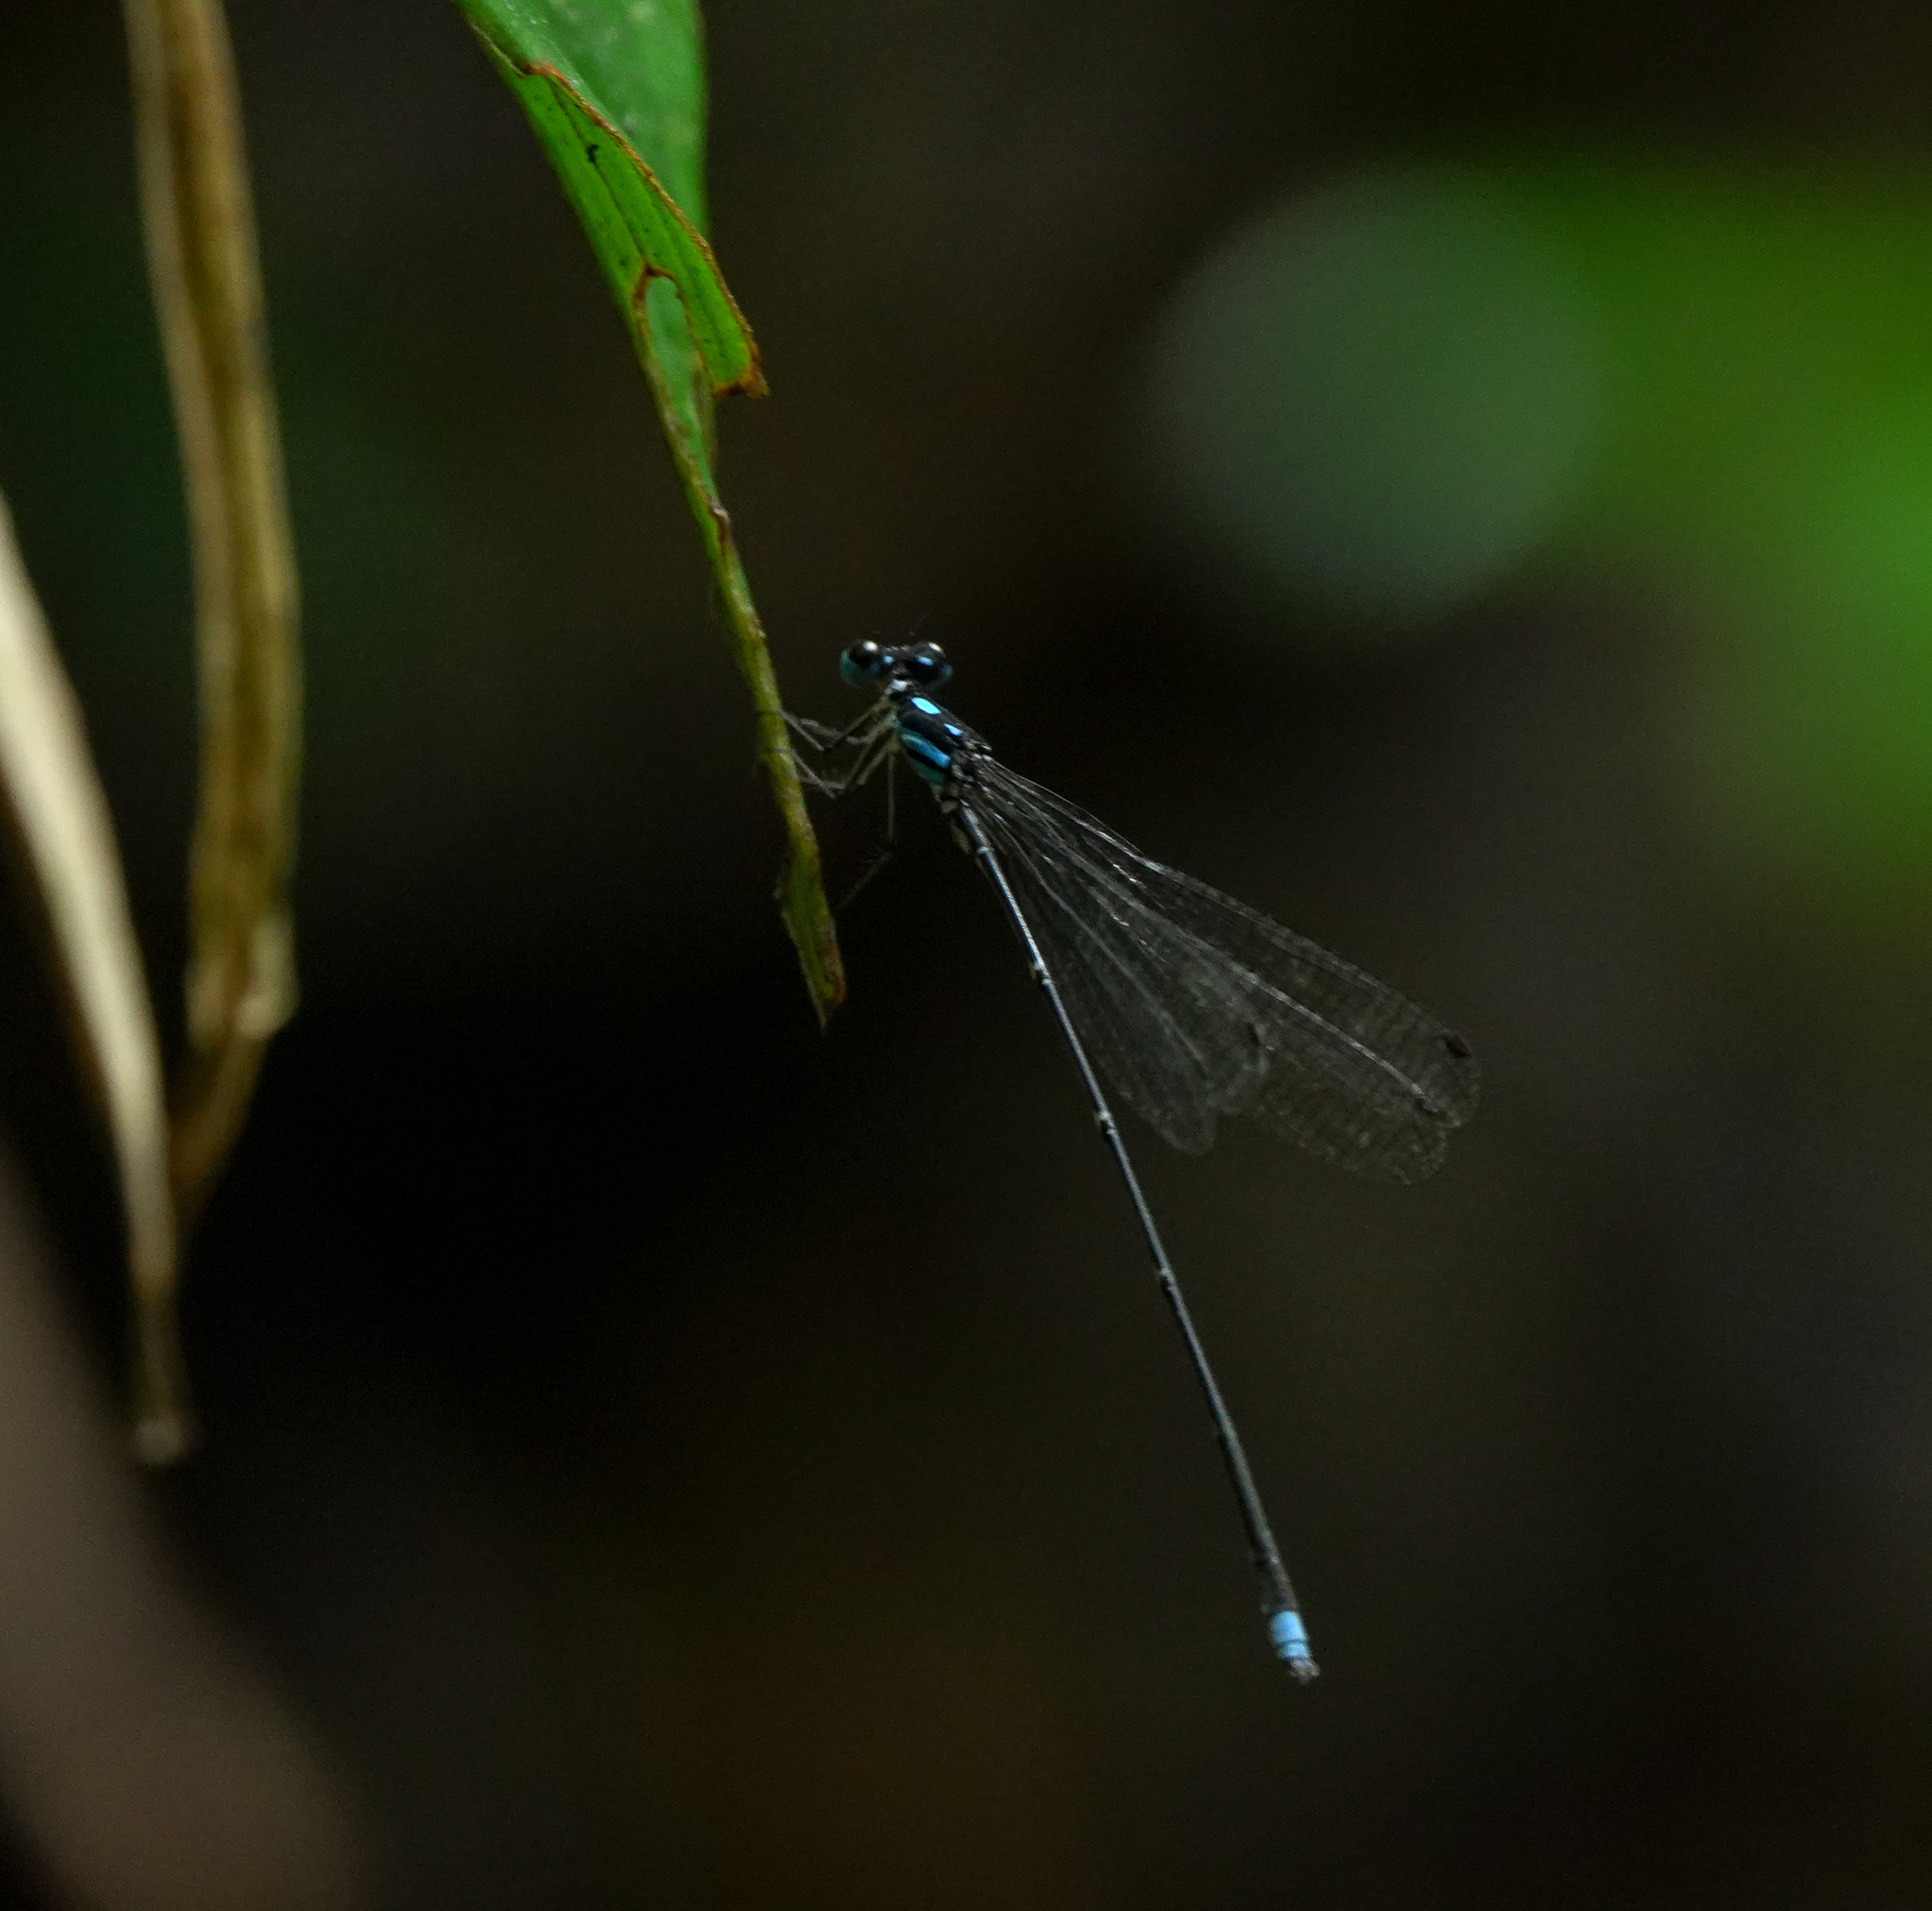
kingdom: Animalia
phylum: Arthropoda
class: Insecta
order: Odonata
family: Platycnemididae
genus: Coeliccia
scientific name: Coeliccia didyma
